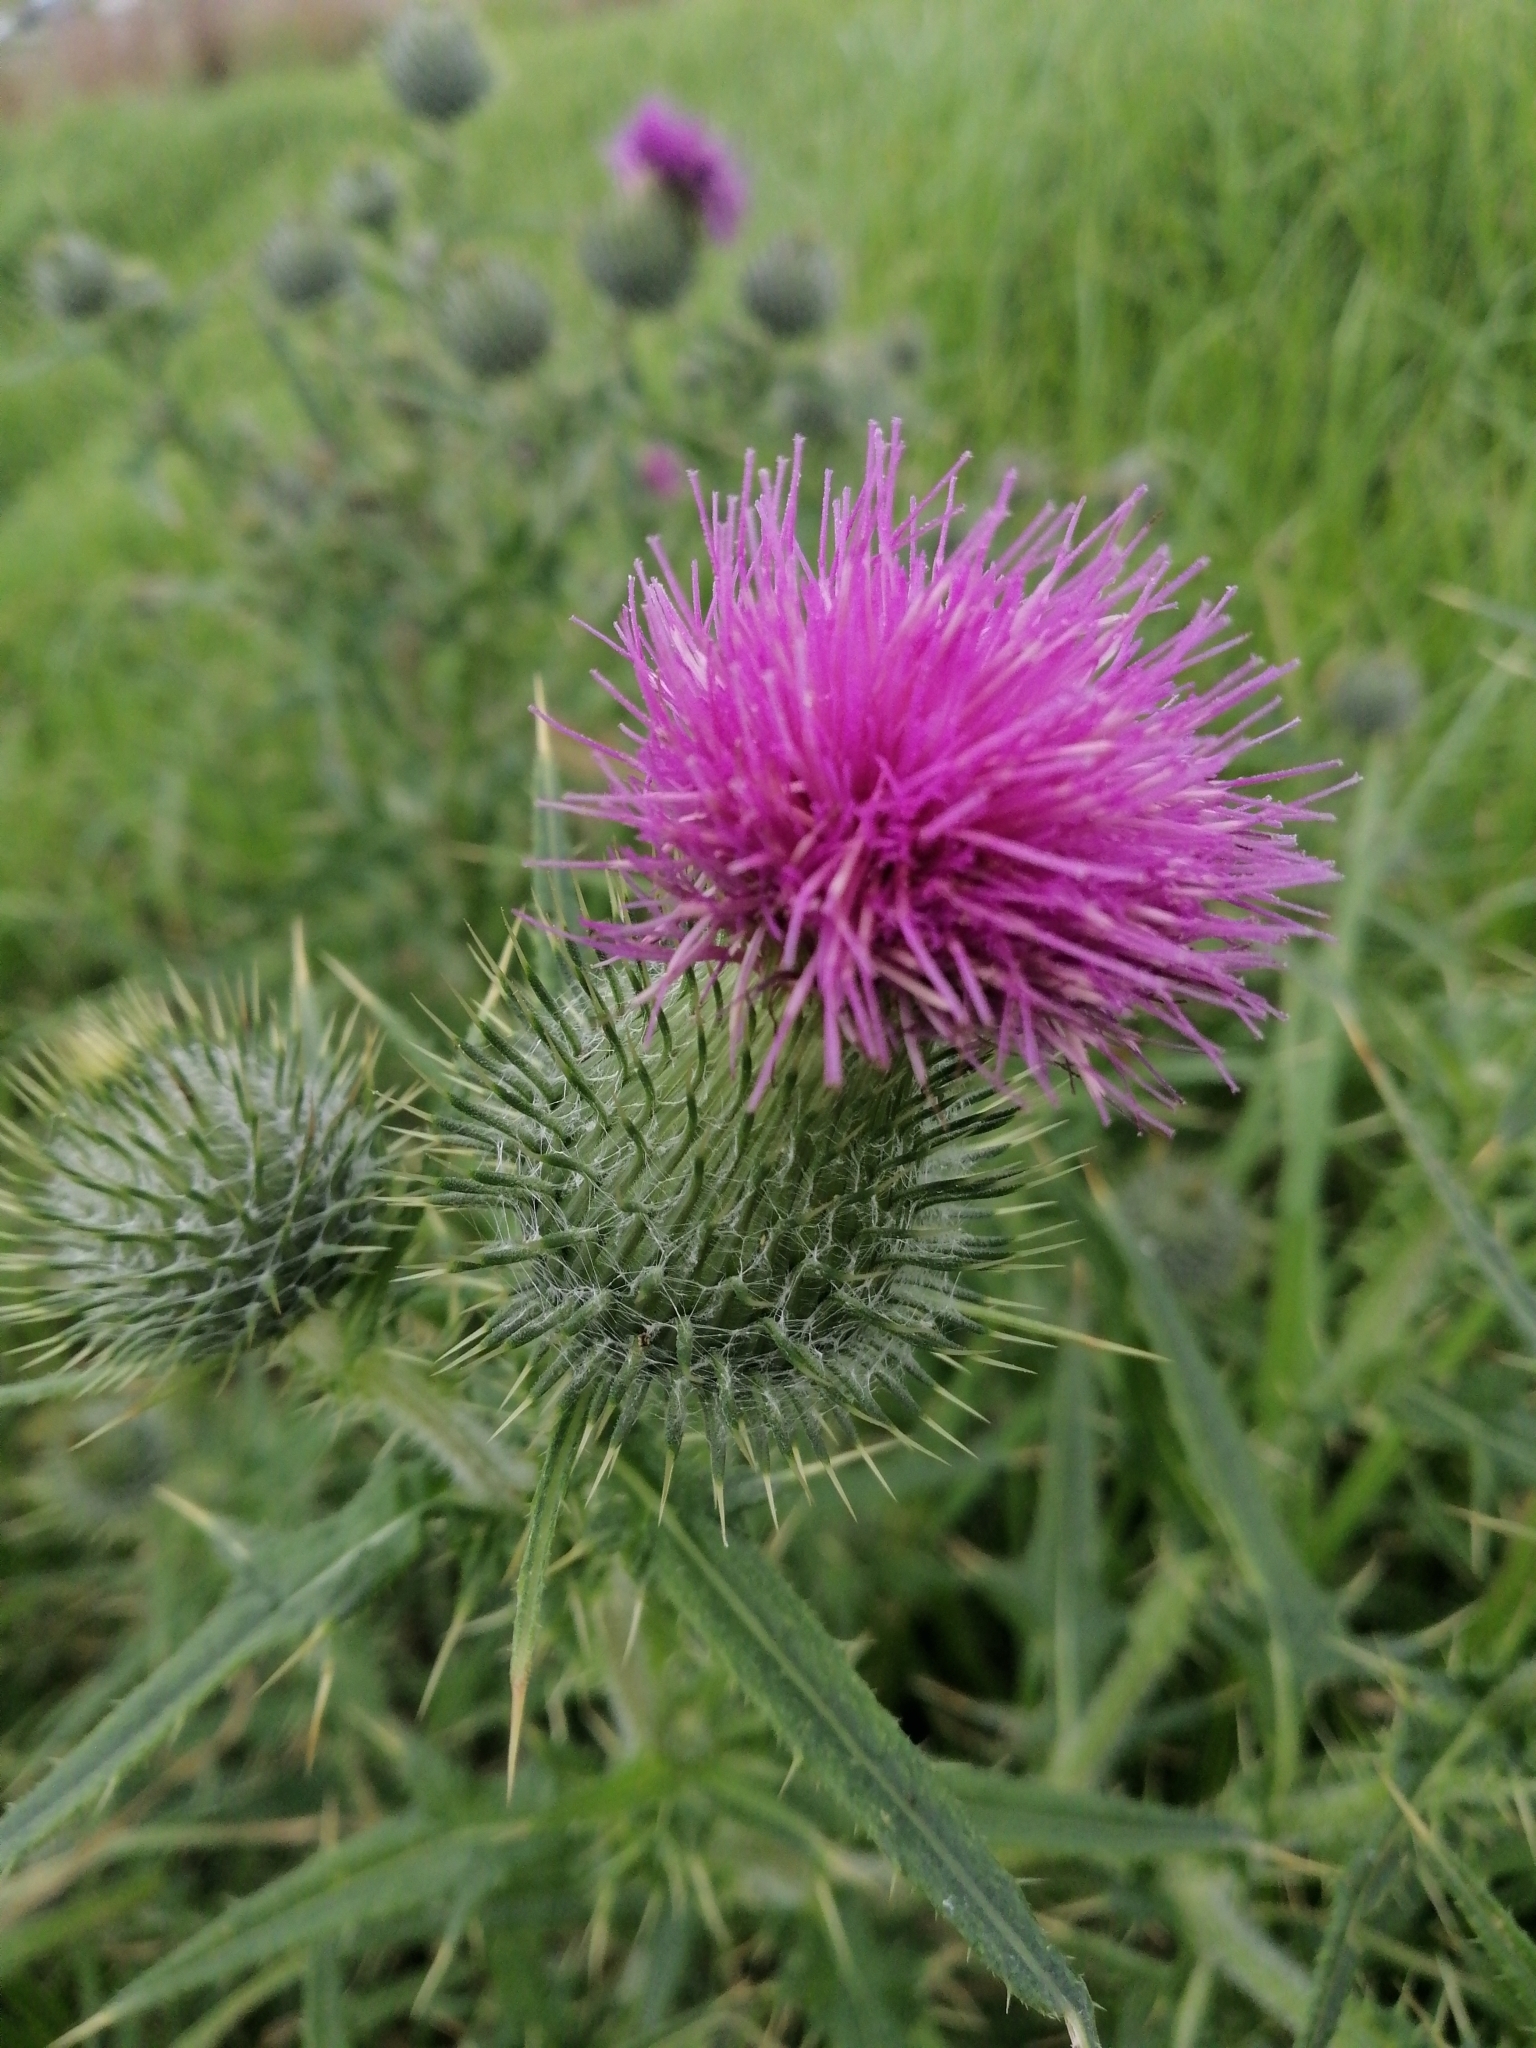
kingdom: Plantae
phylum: Tracheophyta
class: Magnoliopsida
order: Asterales
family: Asteraceae
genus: Cirsium
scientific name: Cirsium vulgare
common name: Bull thistle
